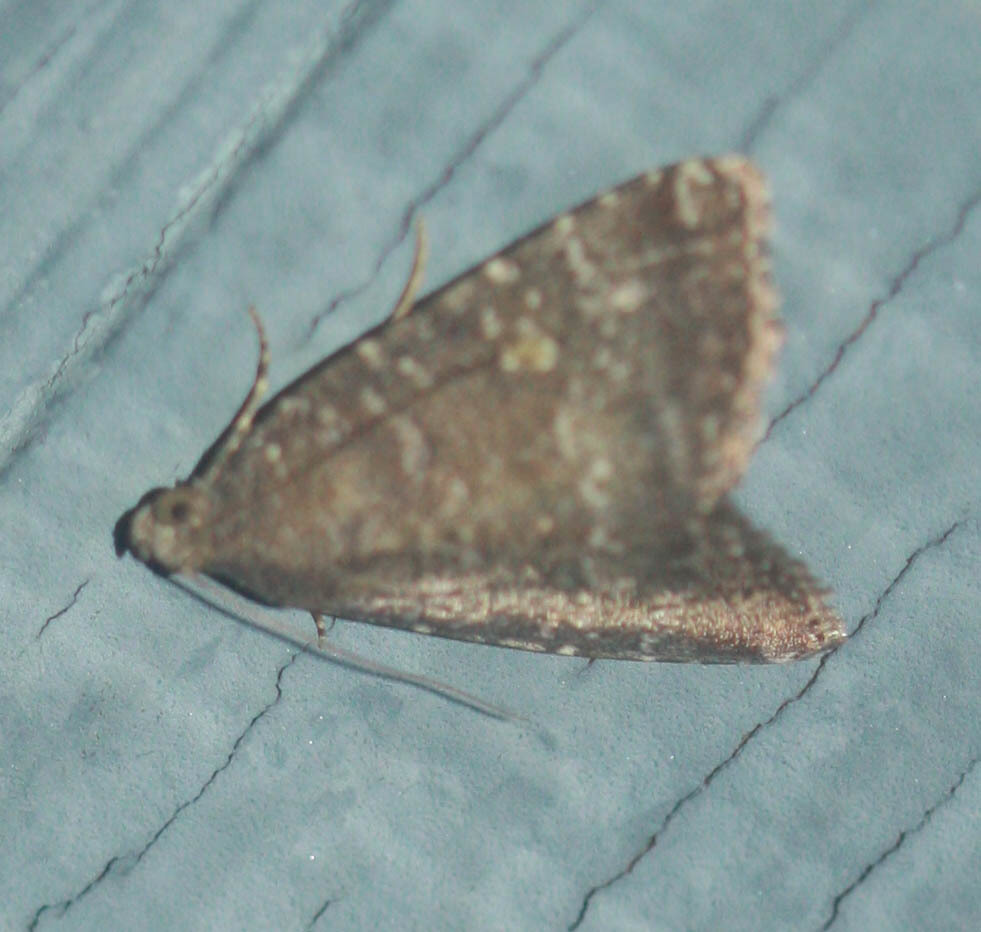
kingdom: Animalia
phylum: Arthropoda
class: Insecta
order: Lepidoptera
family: Noctuidae
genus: Amyna
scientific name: Amyna stricta
